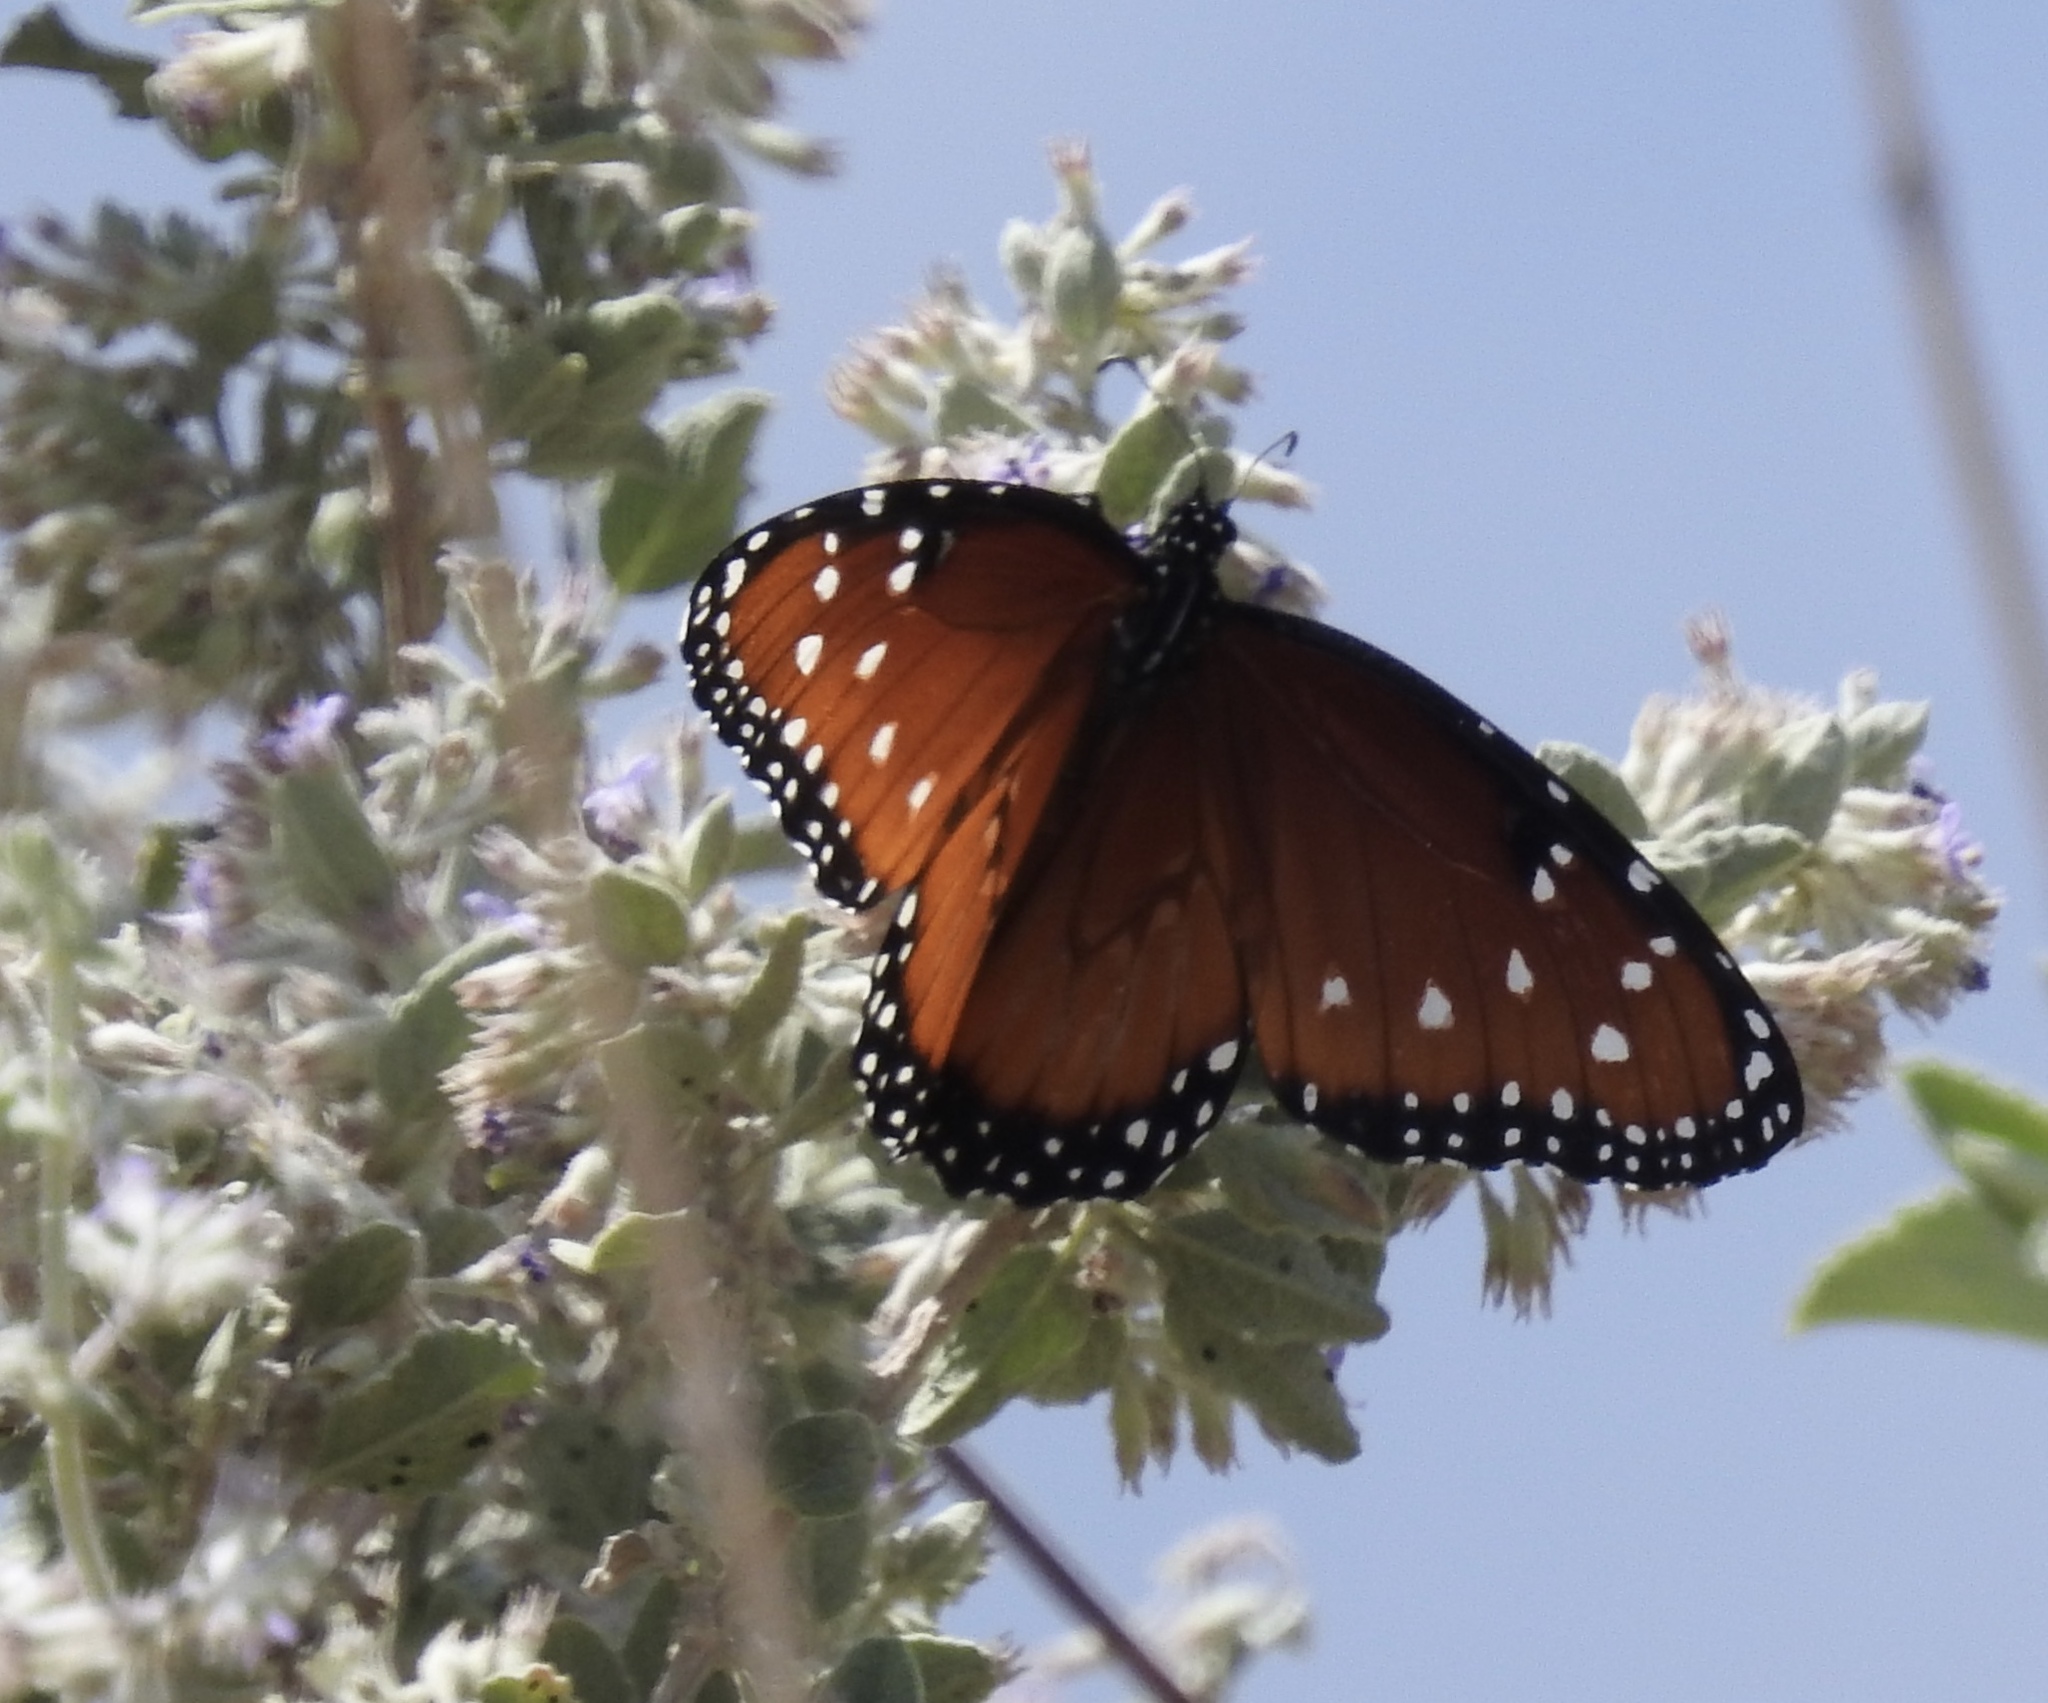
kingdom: Animalia
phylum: Arthropoda
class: Insecta
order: Lepidoptera
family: Nymphalidae
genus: Danaus
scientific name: Danaus gilippus
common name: Queen
